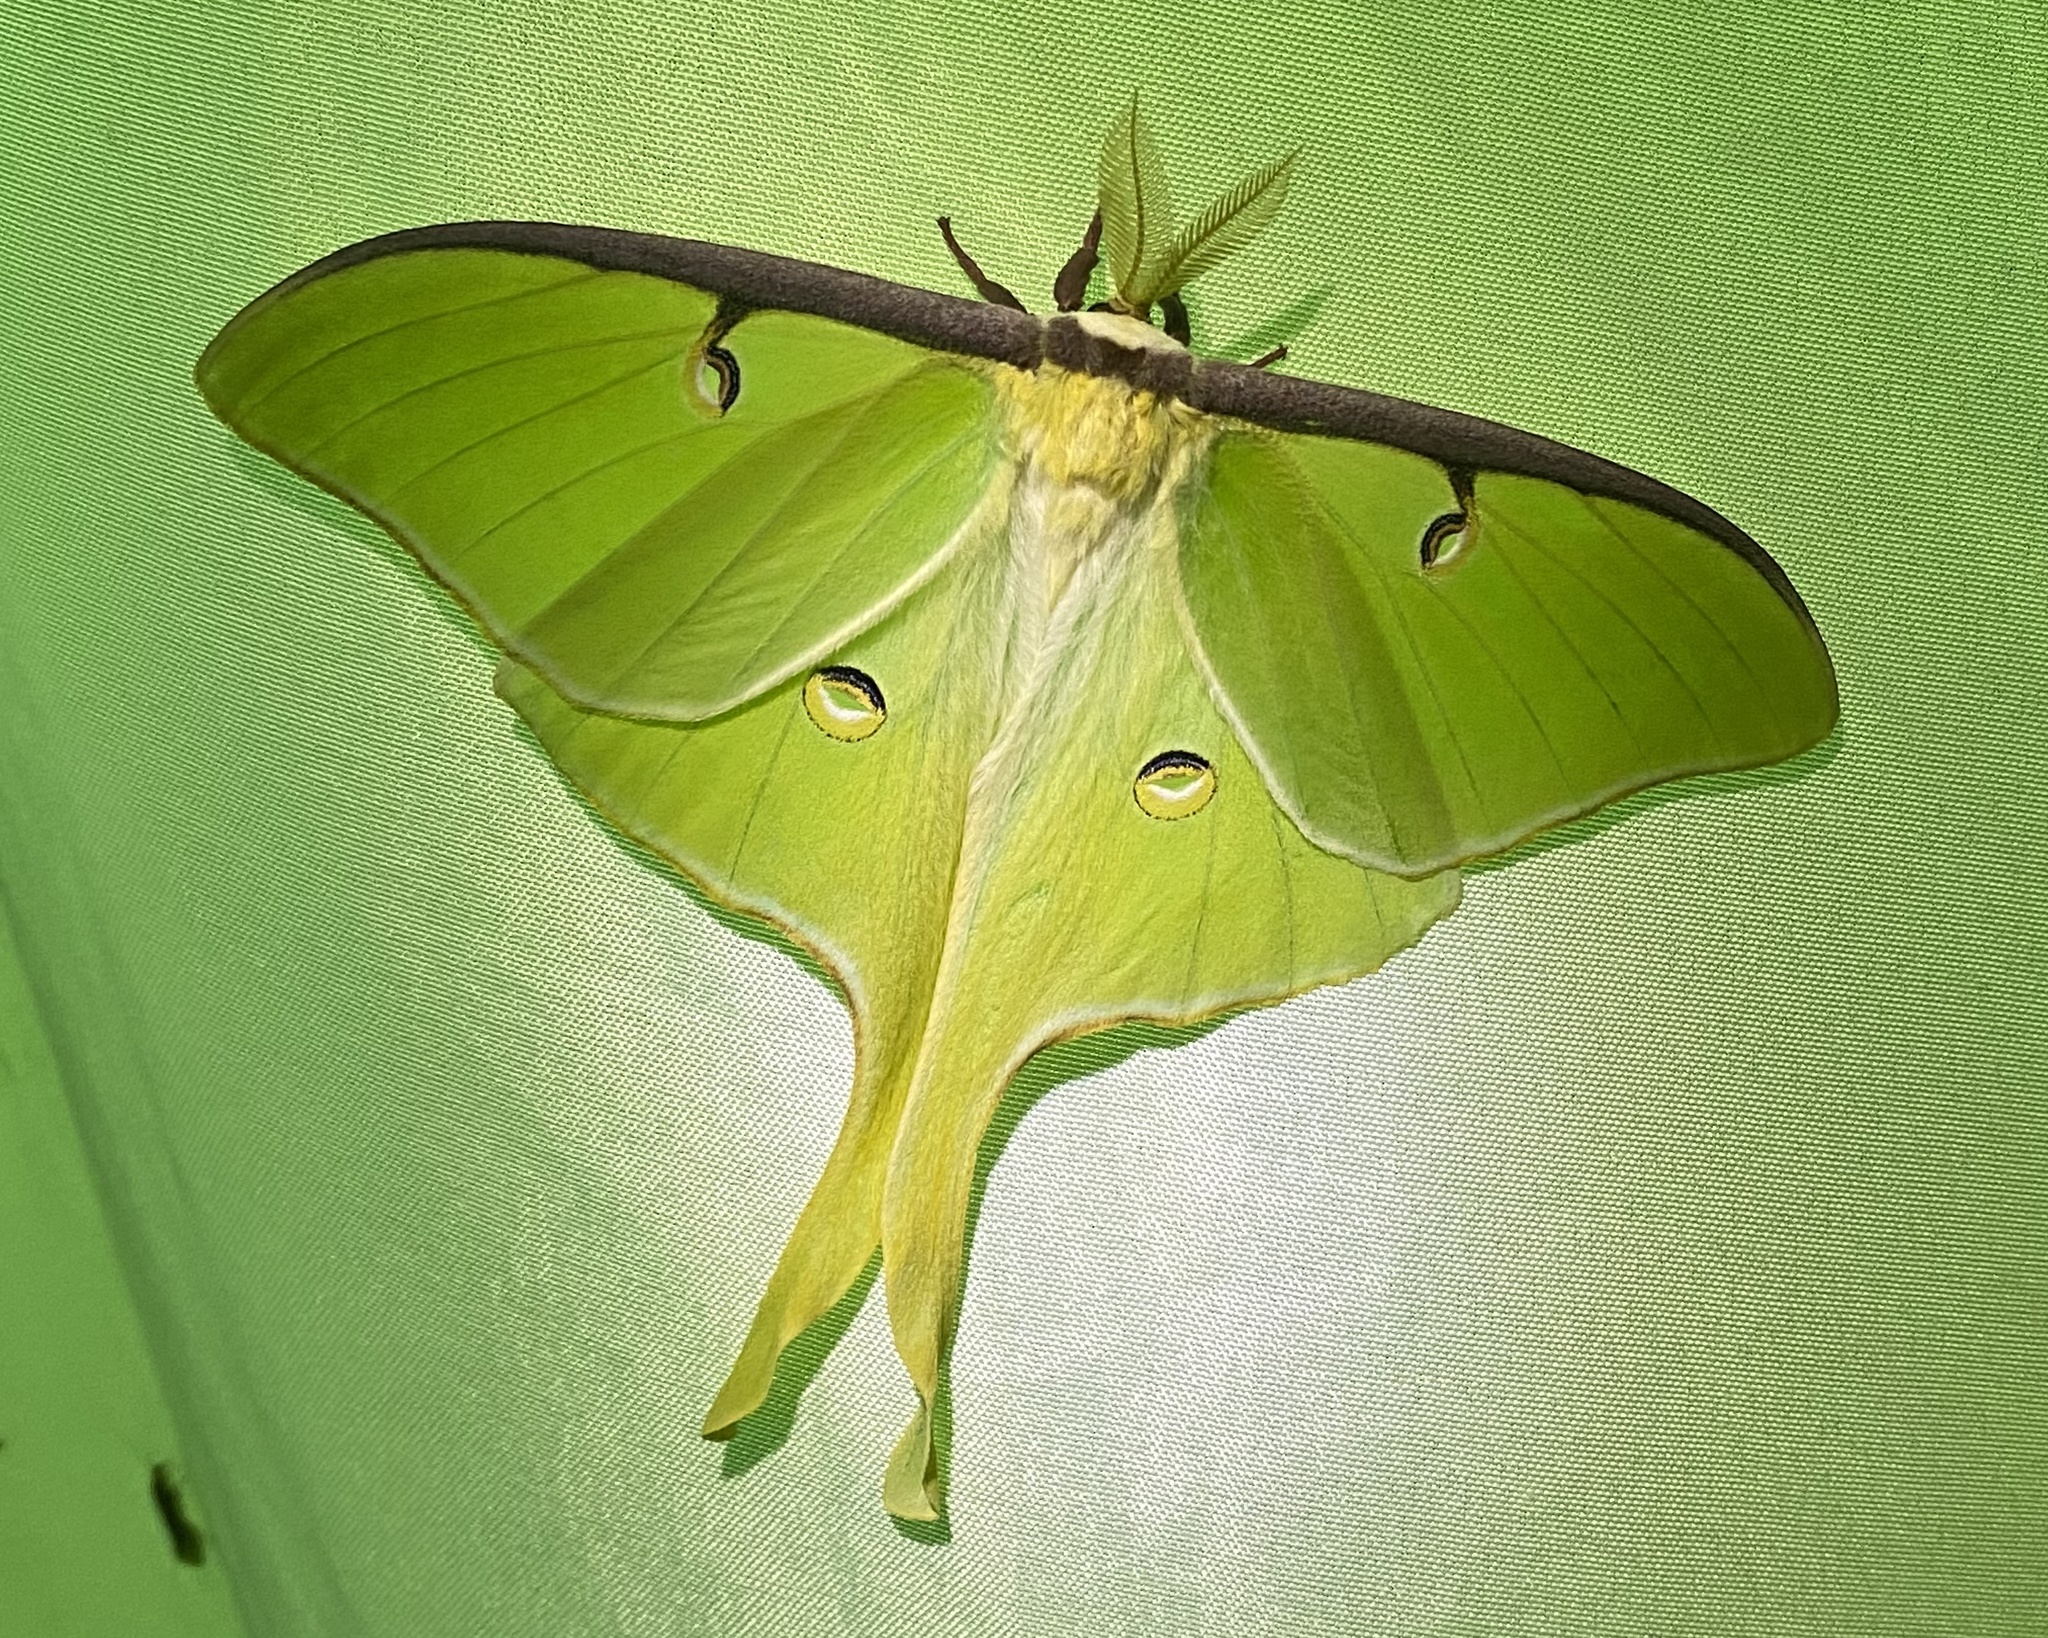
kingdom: Animalia
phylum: Arthropoda
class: Insecta
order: Lepidoptera
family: Saturniidae
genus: Actias
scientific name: Actias luna
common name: Luna moth
